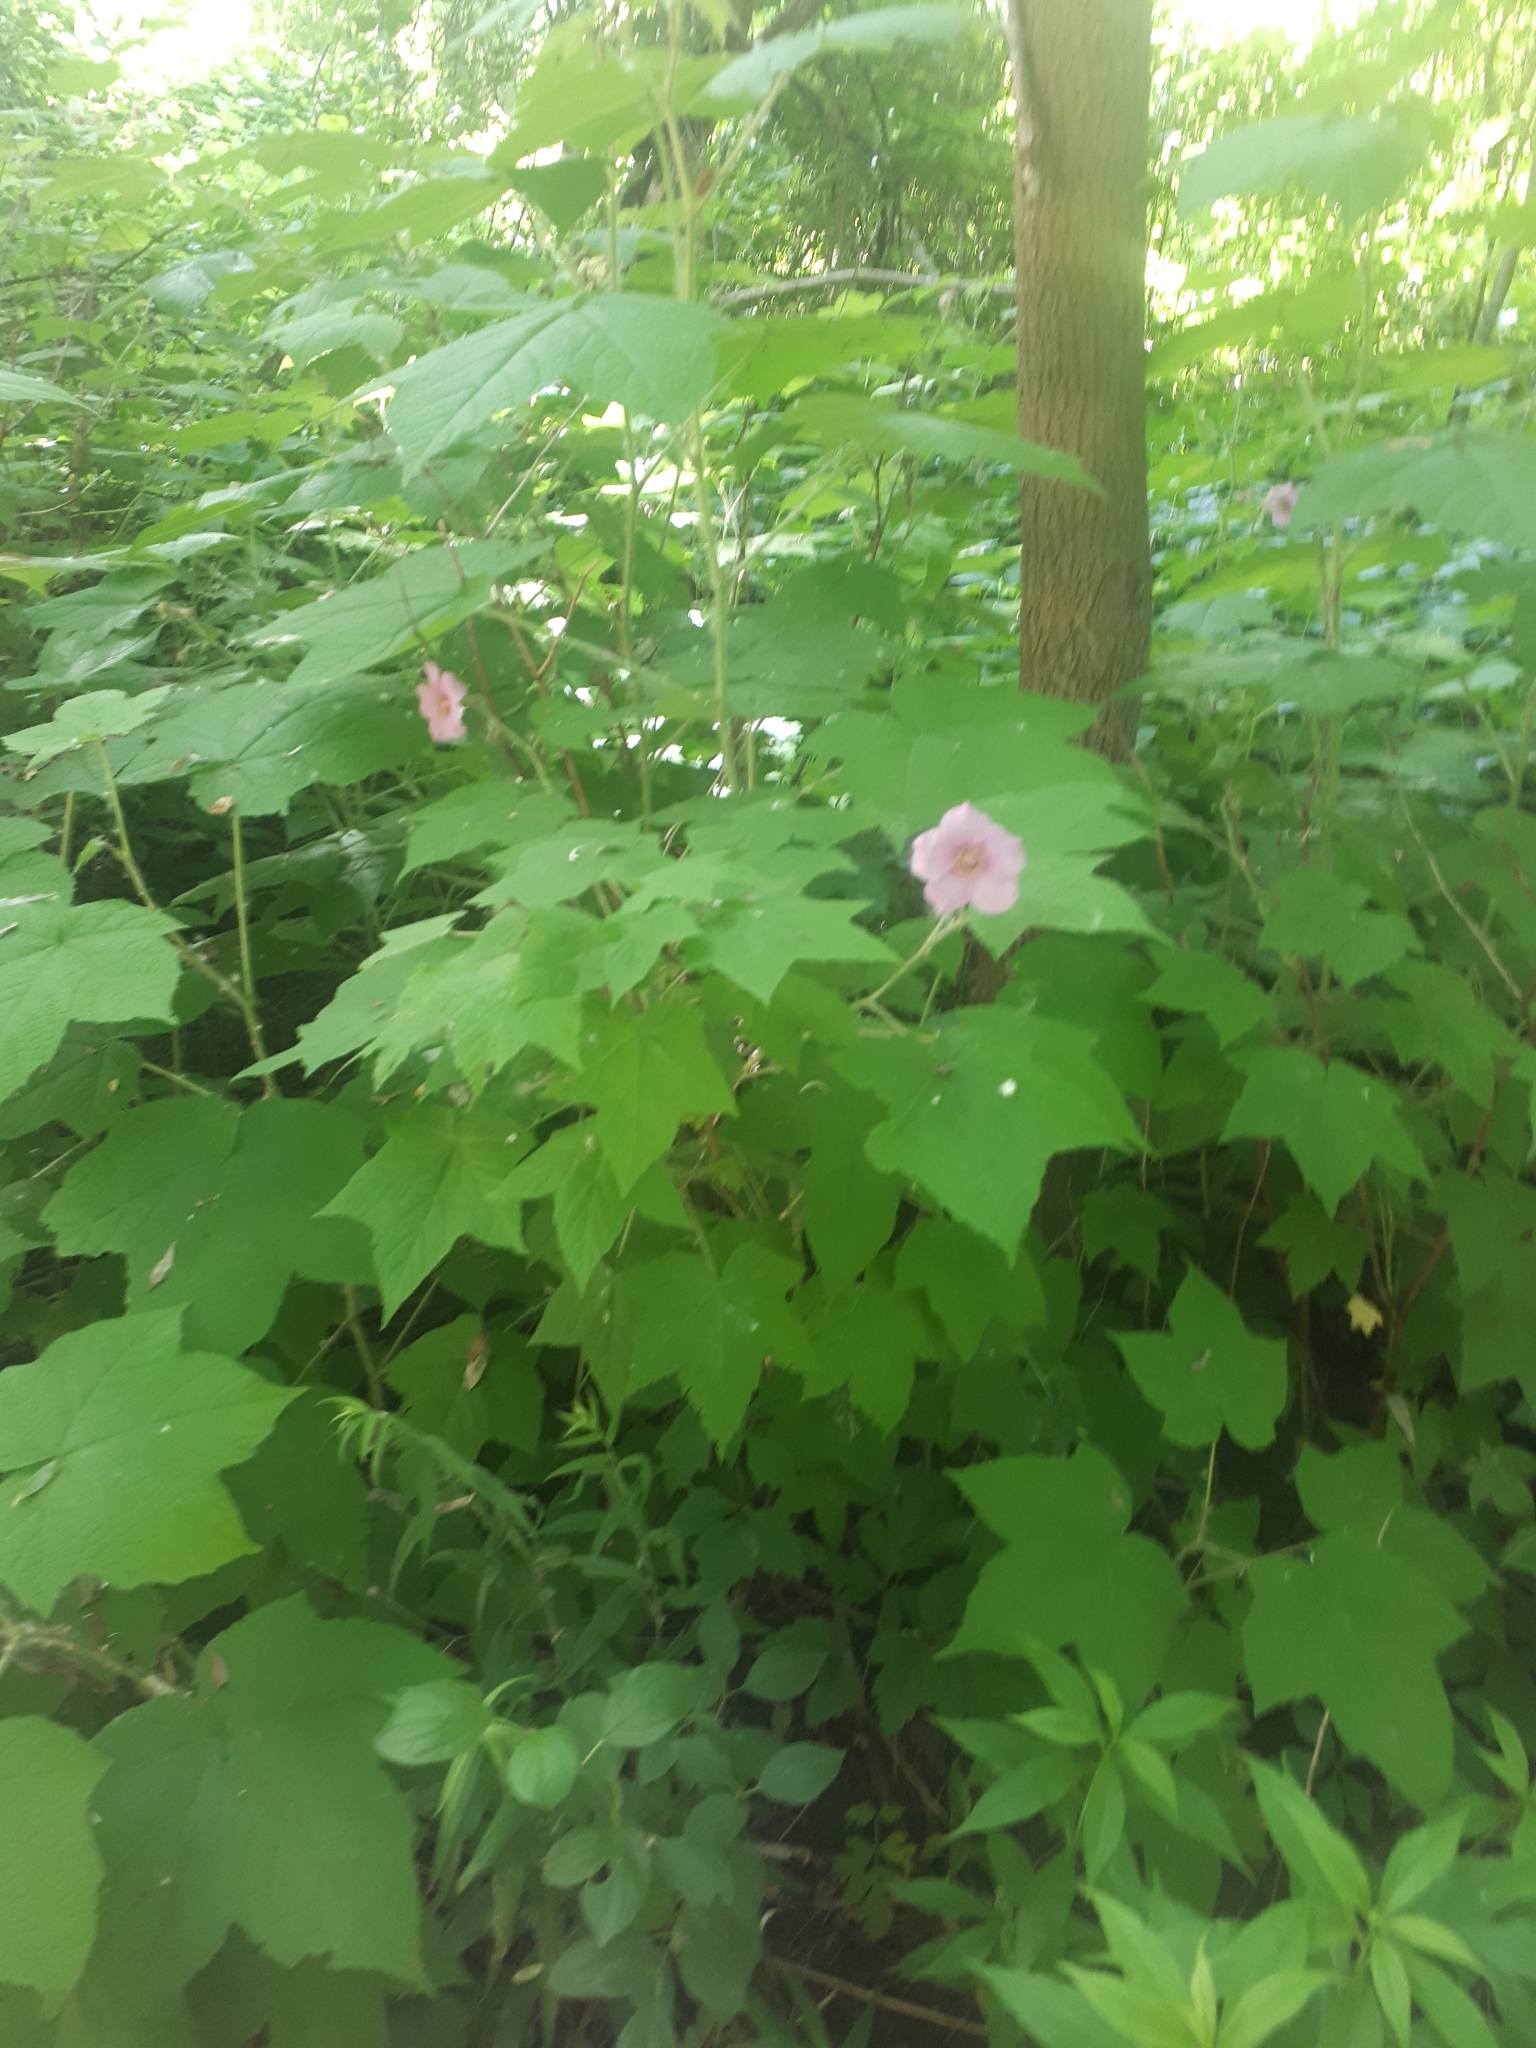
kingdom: Plantae
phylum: Tracheophyta
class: Magnoliopsida
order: Rosales
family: Rosaceae
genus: Rubus
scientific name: Rubus odoratus
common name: Purple-flowered raspberry
